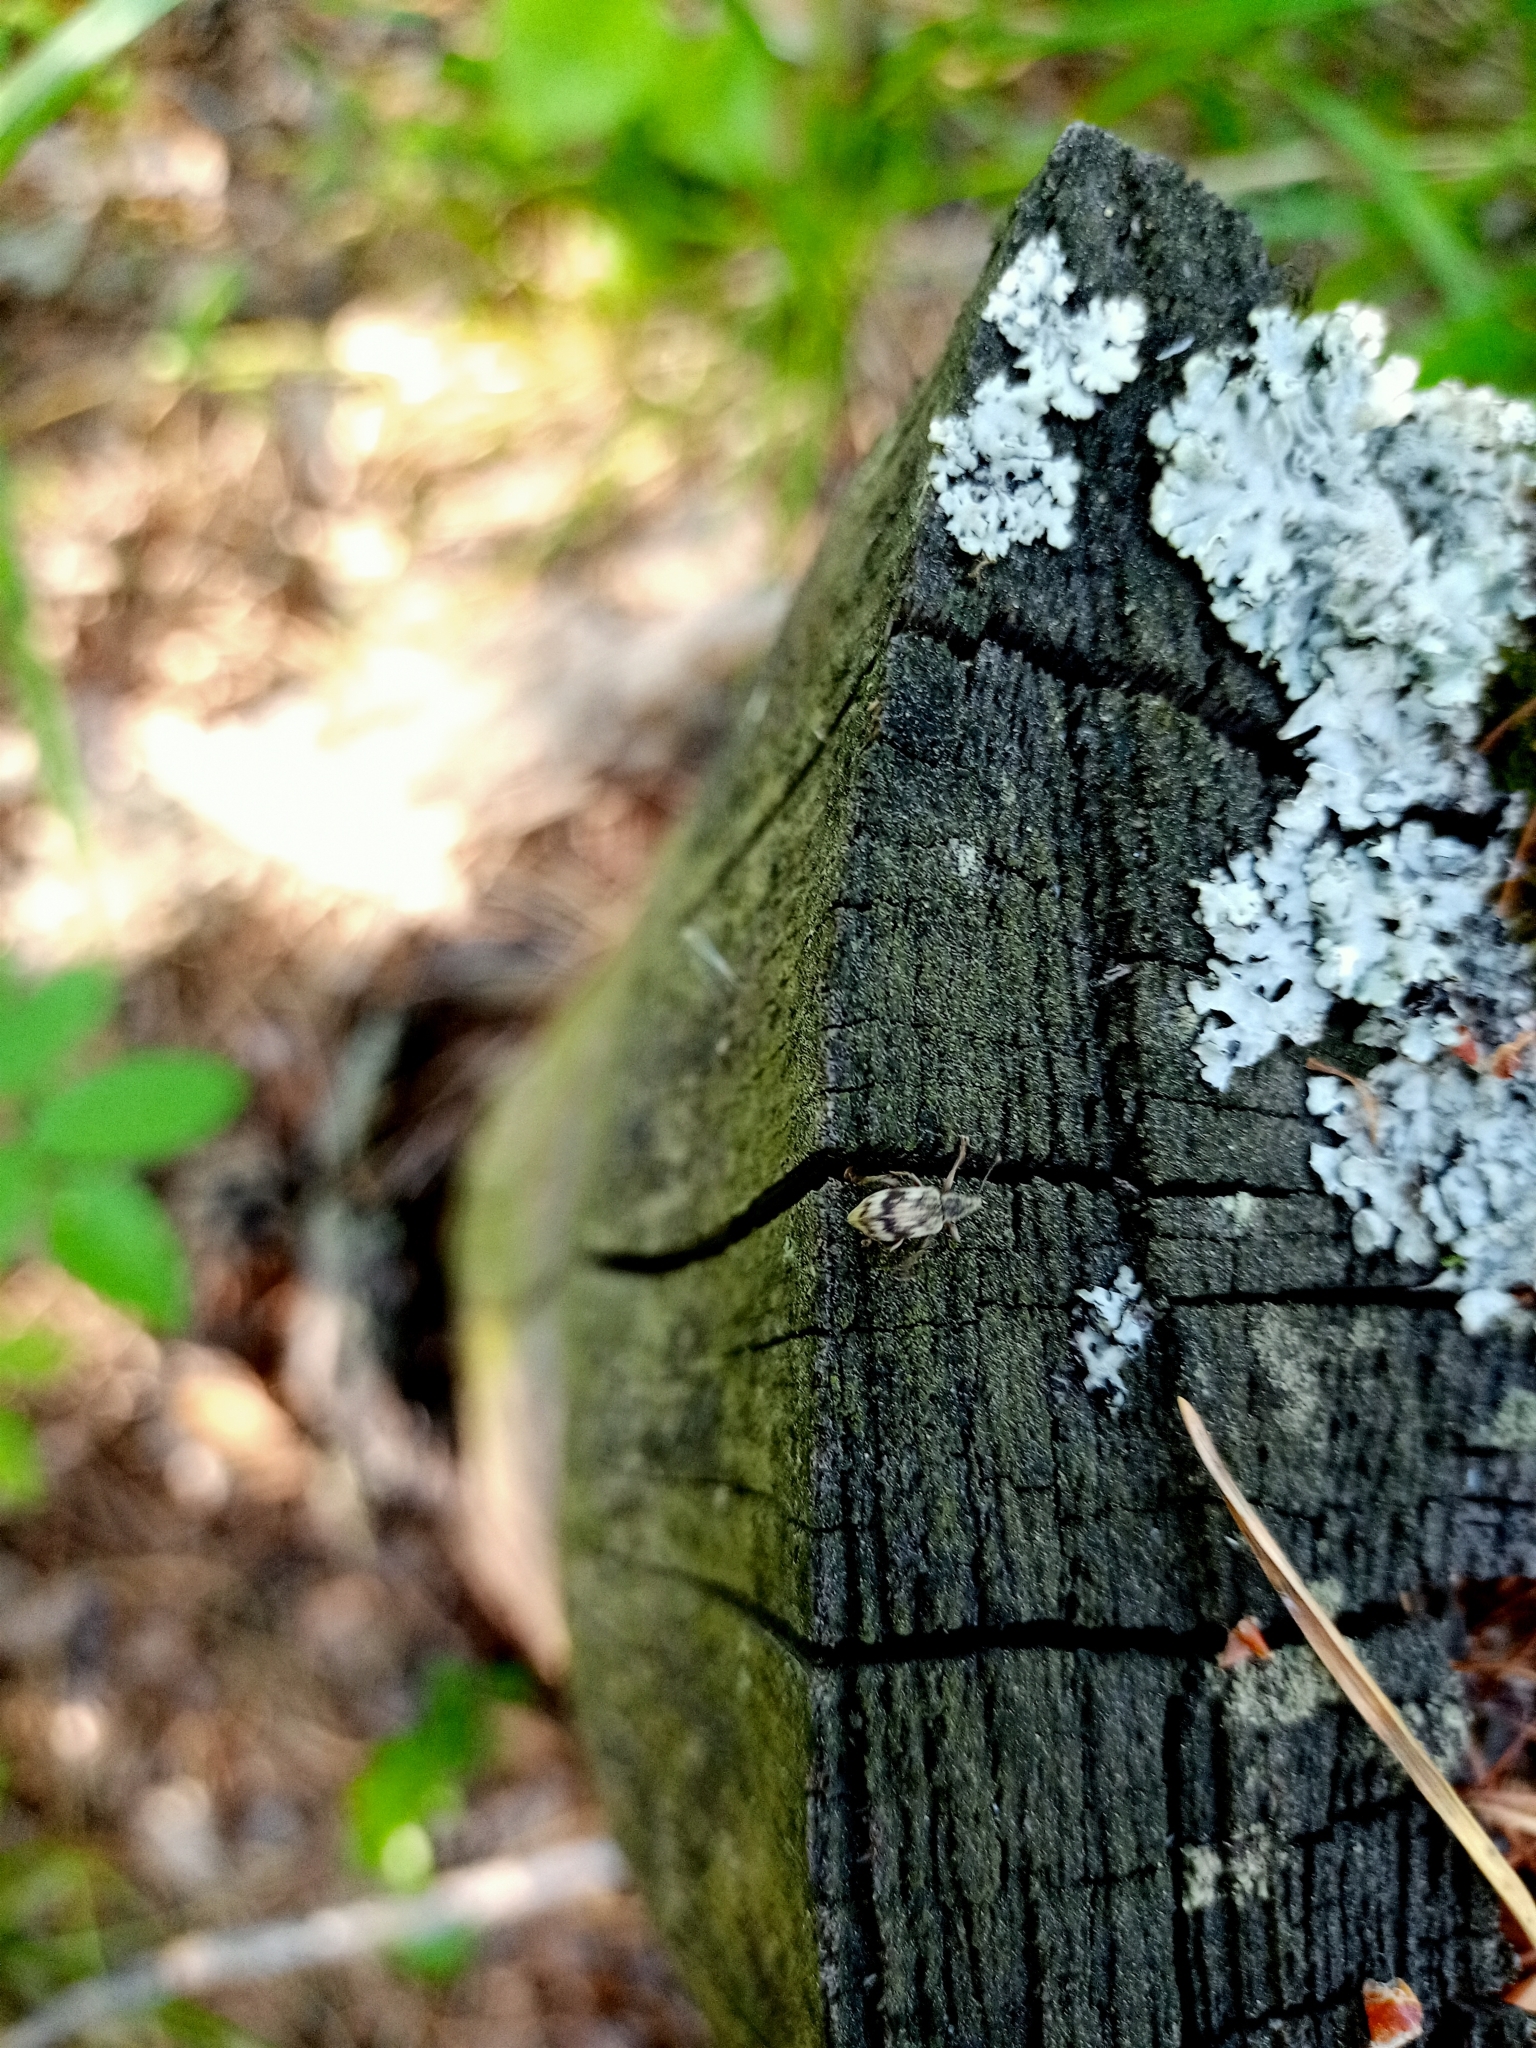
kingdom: Animalia
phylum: Arthropoda
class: Insecta
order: Coleoptera
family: Curculionidae
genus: Polydrusus
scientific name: Polydrusus tereticollis
